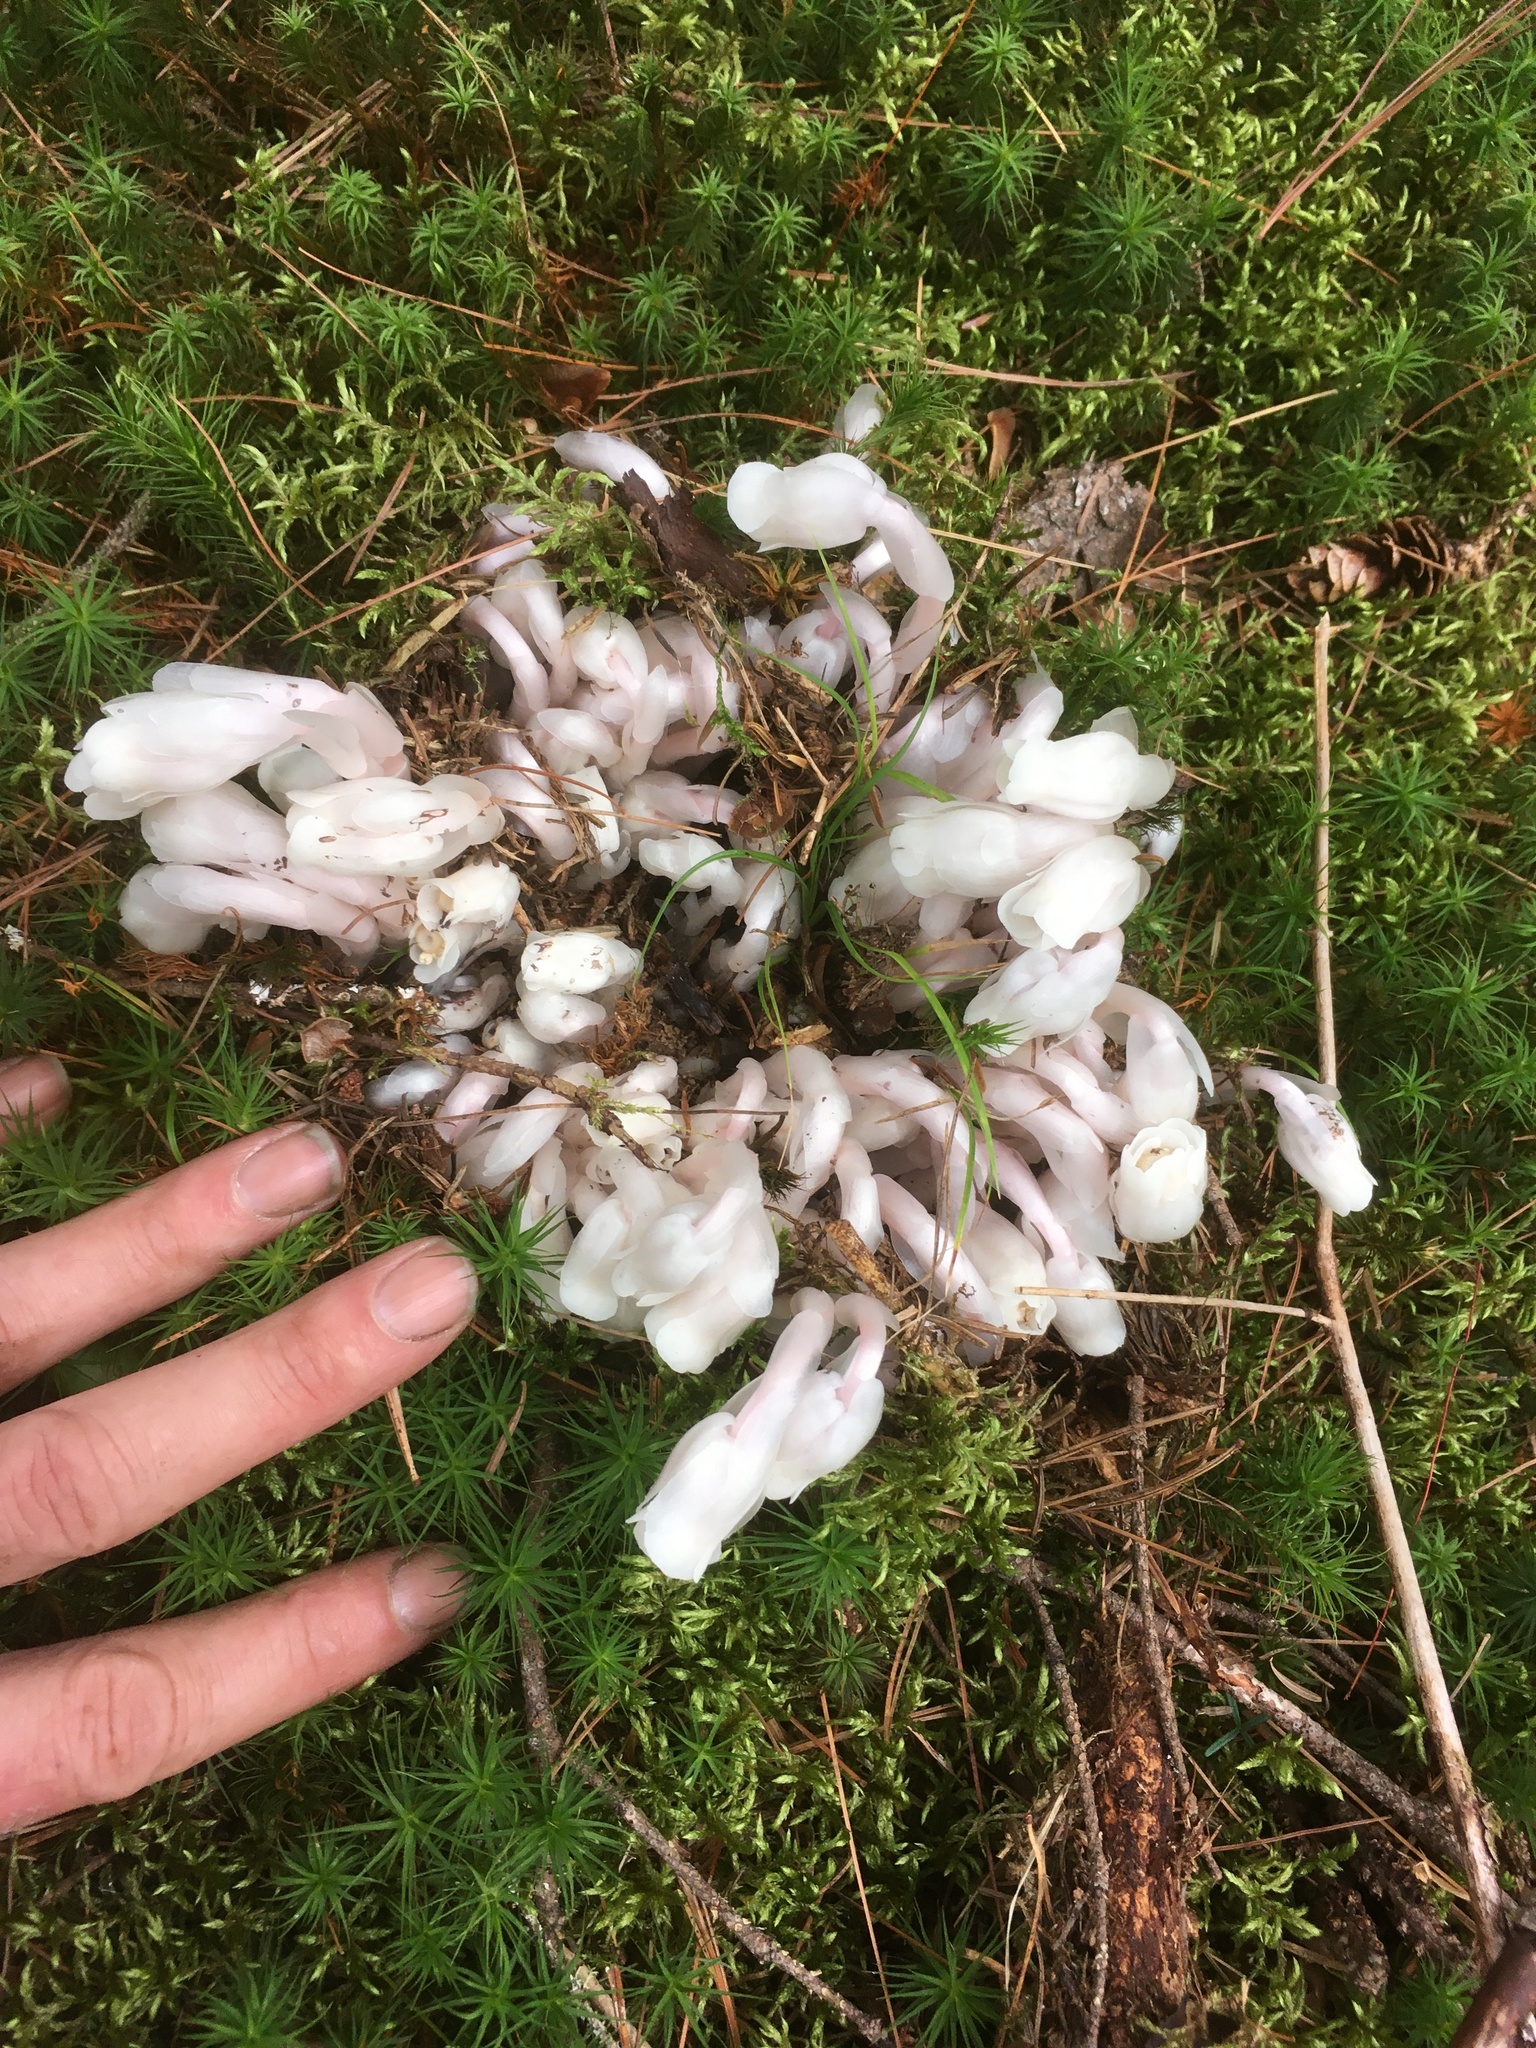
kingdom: Plantae
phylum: Tracheophyta
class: Magnoliopsida
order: Ericales
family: Ericaceae
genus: Monotropa
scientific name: Monotropa uniflora
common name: Convulsion root
